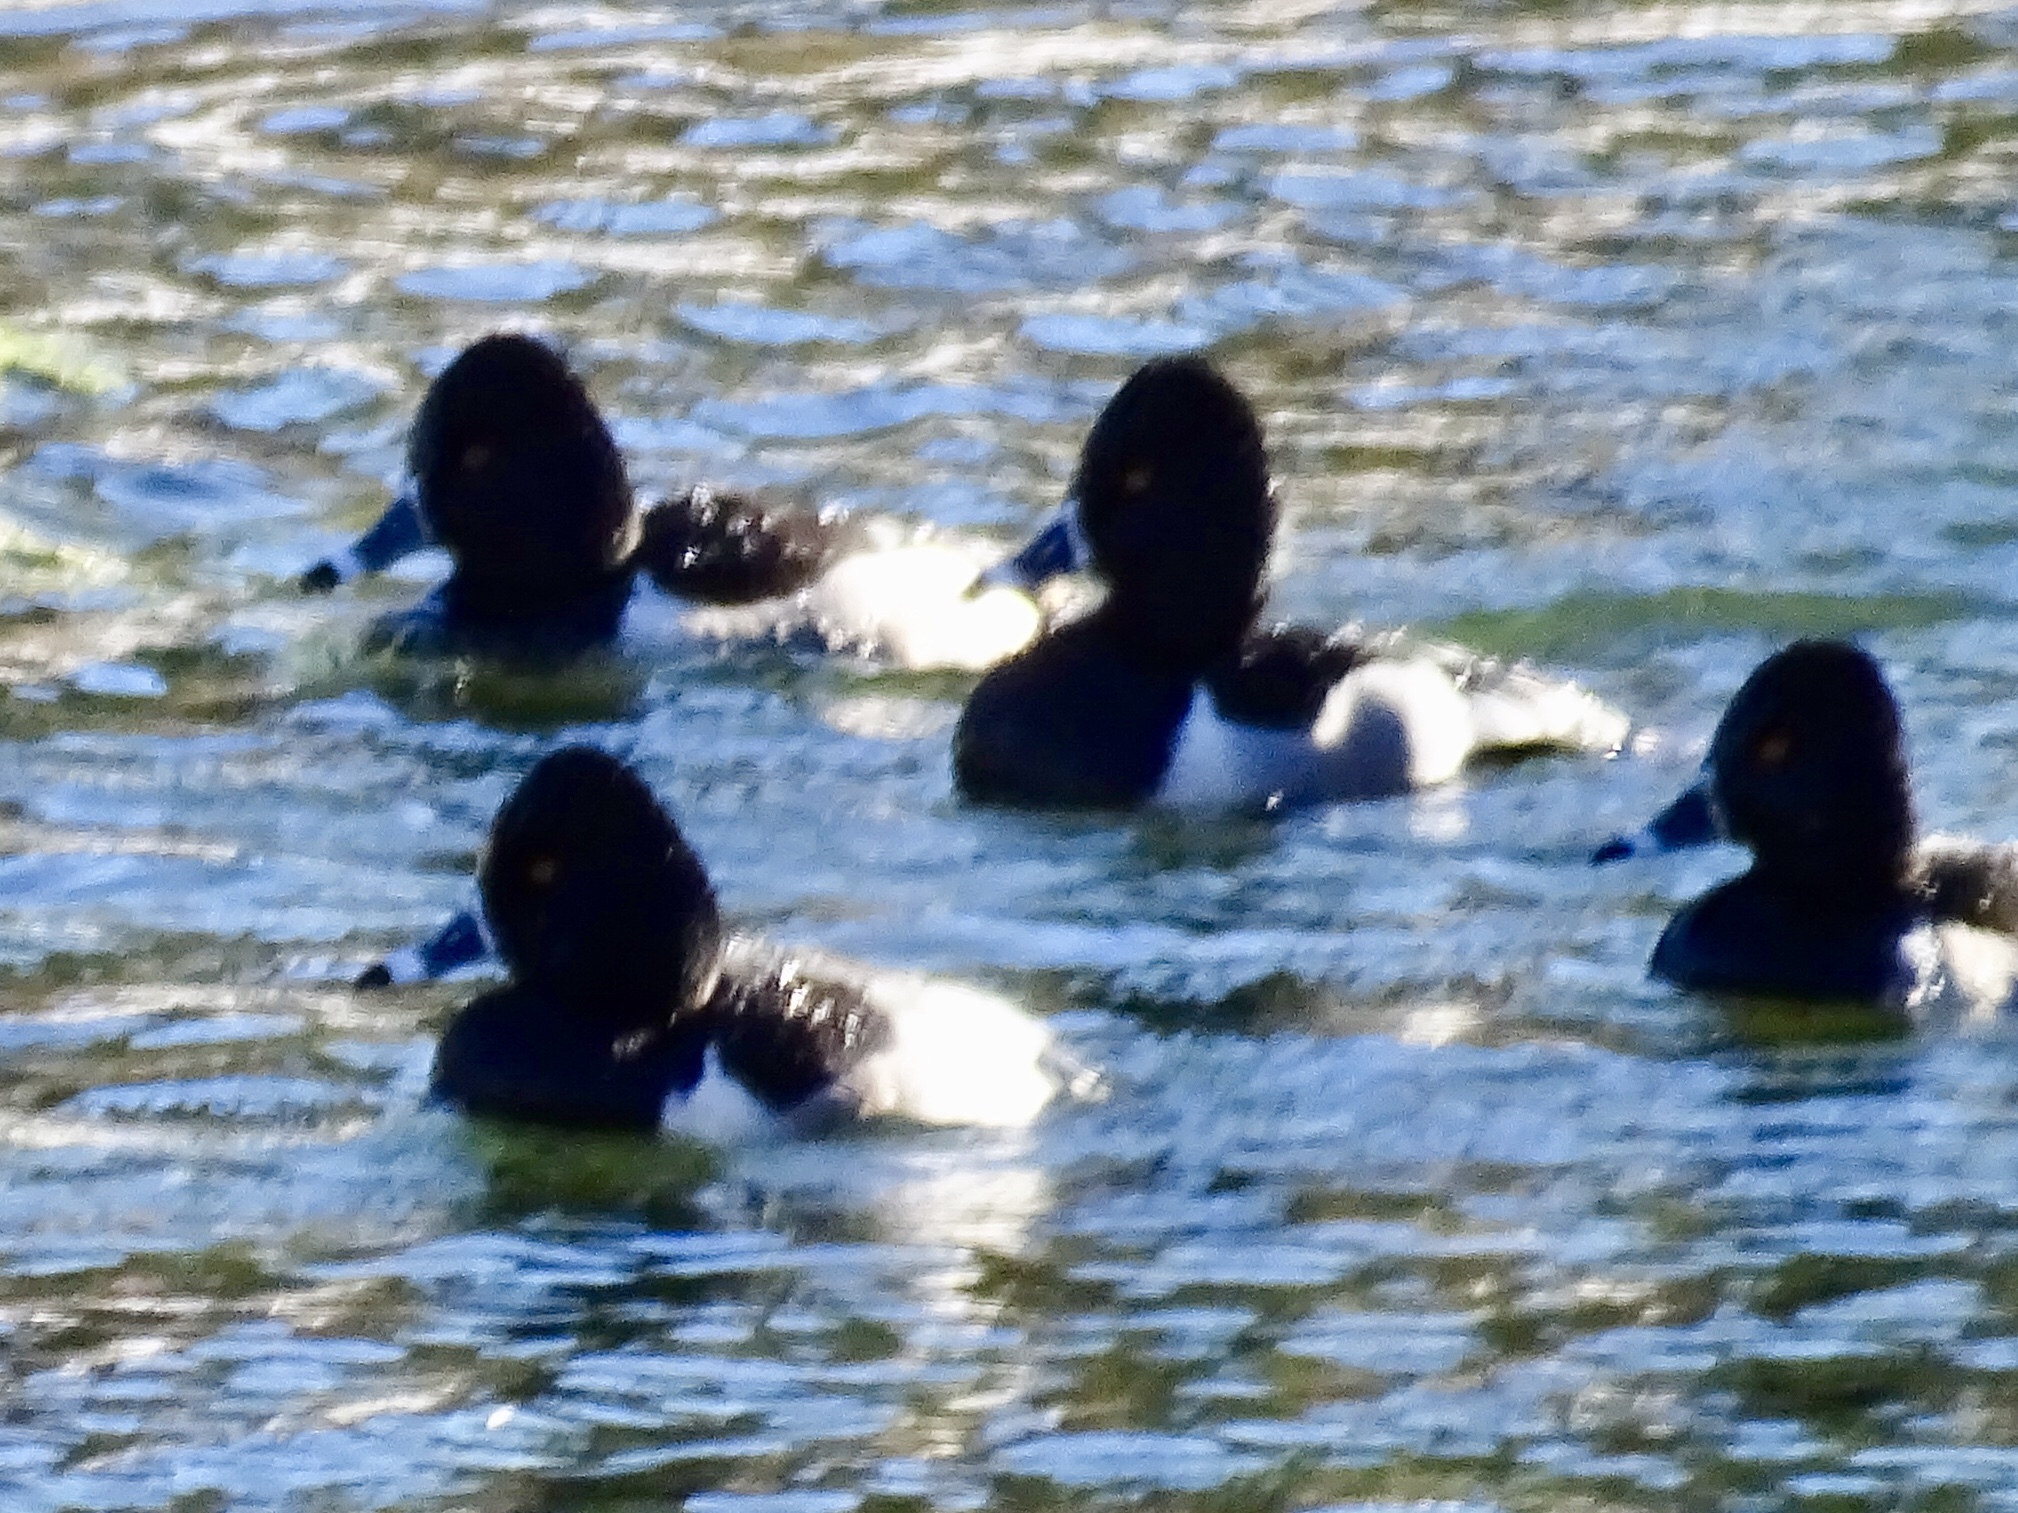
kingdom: Animalia
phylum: Chordata
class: Aves
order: Anseriformes
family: Anatidae
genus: Aythya
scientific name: Aythya collaris
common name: Ring-necked duck
